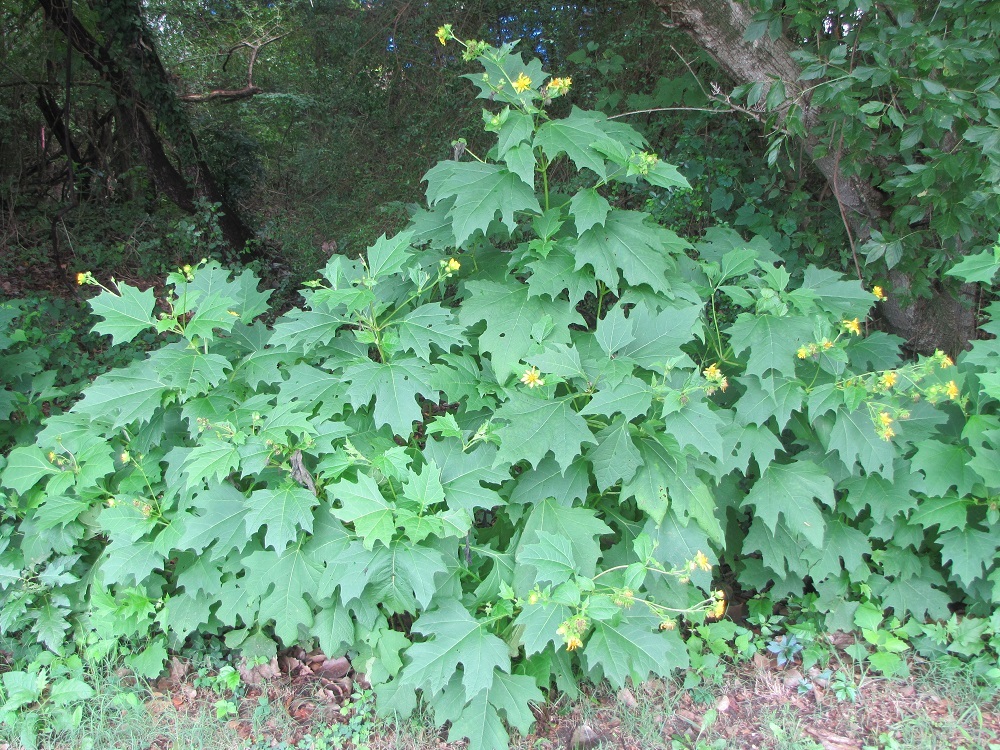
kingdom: Plantae
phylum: Tracheophyta
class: Magnoliopsida
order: Asterales
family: Asteraceae
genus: Smallanthus
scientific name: Smallanthus uvedalia
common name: Bear's-foot
